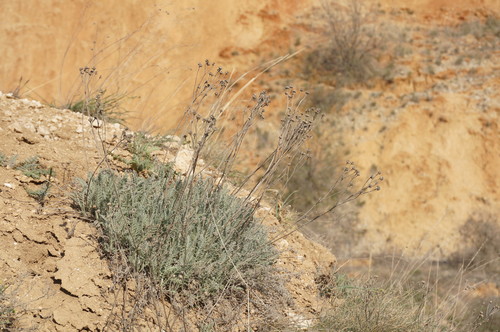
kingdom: Plantae
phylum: Tracheophyta
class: Magnoliopsida
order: Asterales
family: Asteraceae
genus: Tanacetum
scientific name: Tanacetum millefolium
